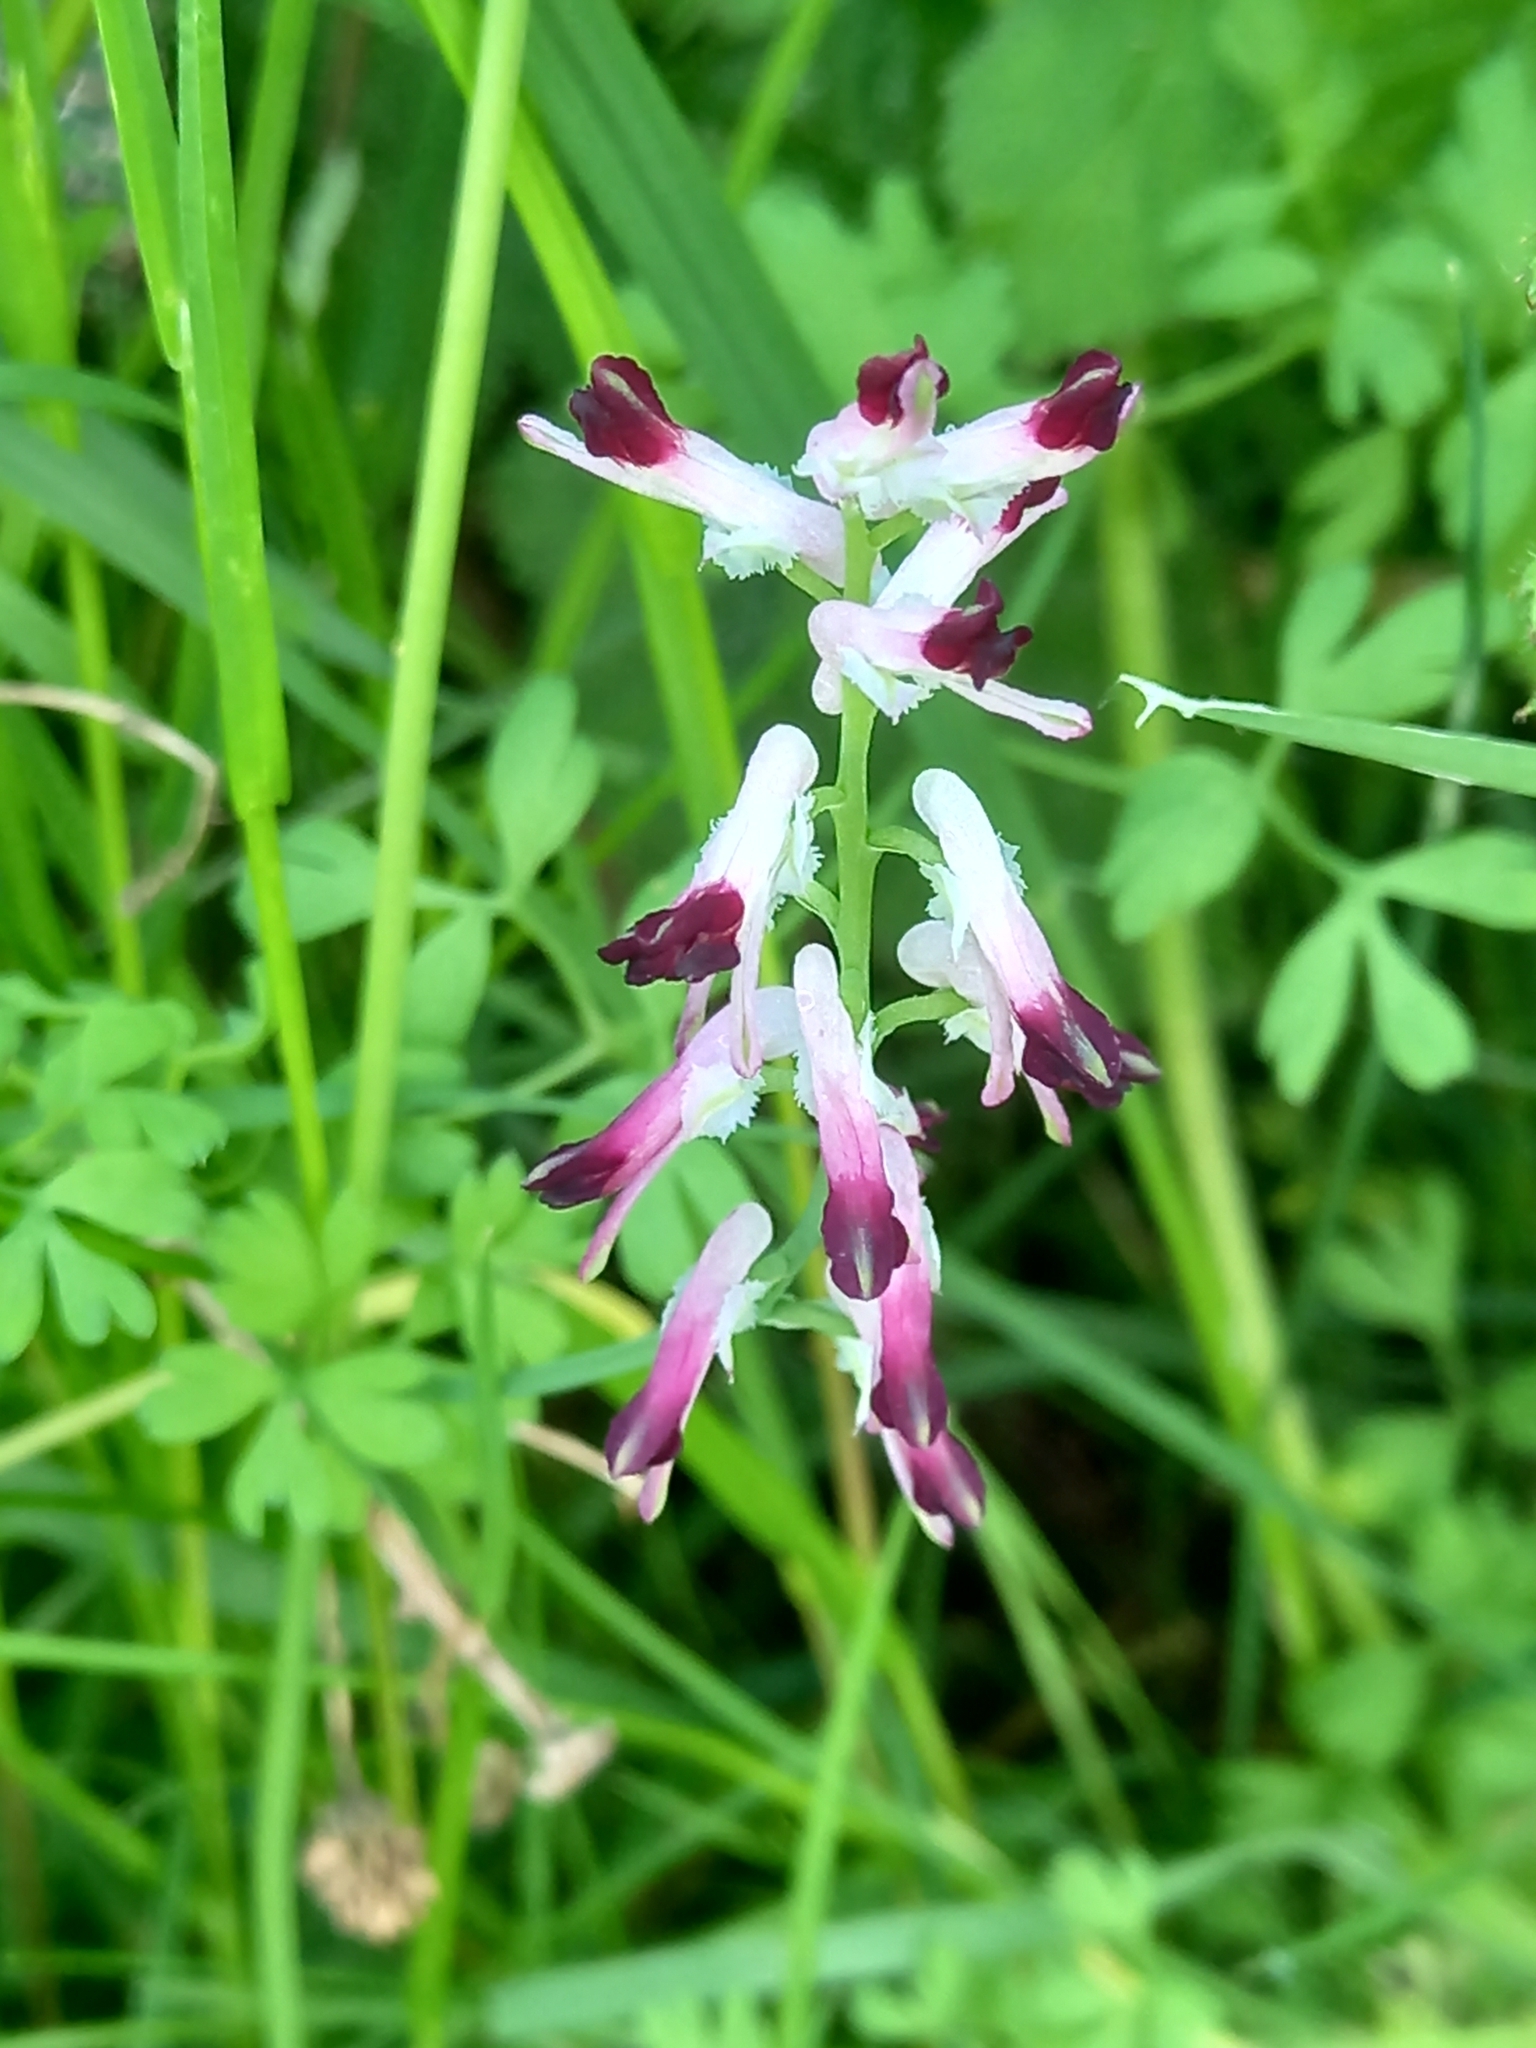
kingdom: Plantae
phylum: Tracheophyta
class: Magnoliopsida
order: Ranunculales
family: Papaveraceae
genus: Fumaria
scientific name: Fumaria muralis
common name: Common ramping-fumitory
